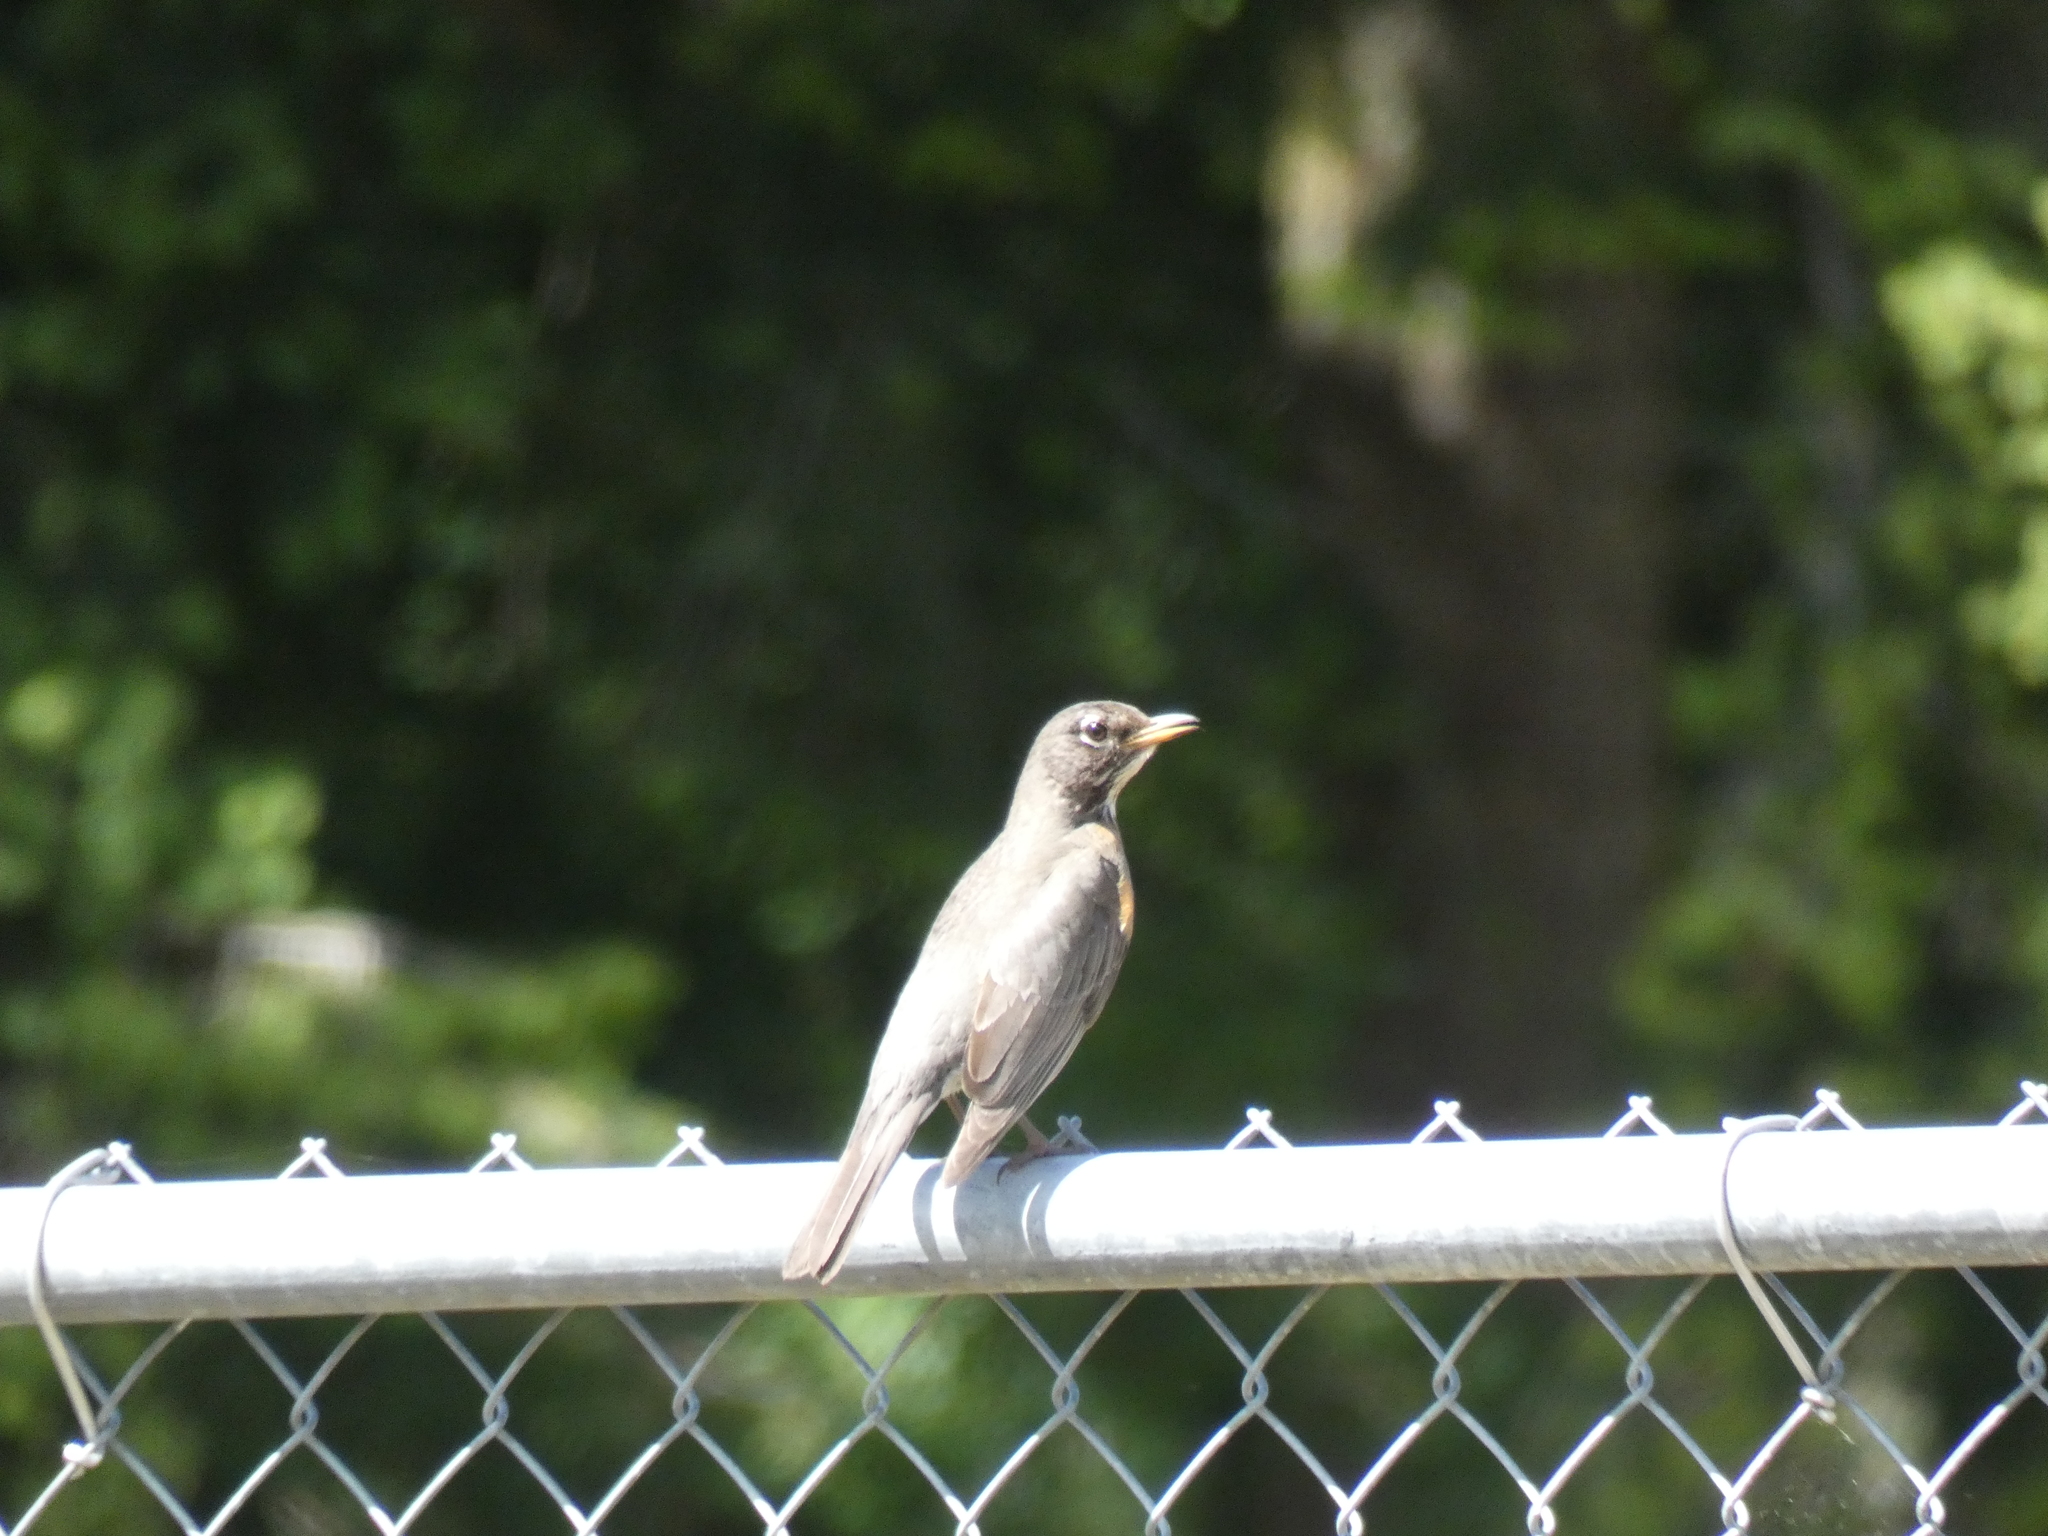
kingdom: Animalia
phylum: Chordata
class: Aves
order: Passeriformes
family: Turdidae
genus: Turdus
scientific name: Turdus migratorius
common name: American robin
